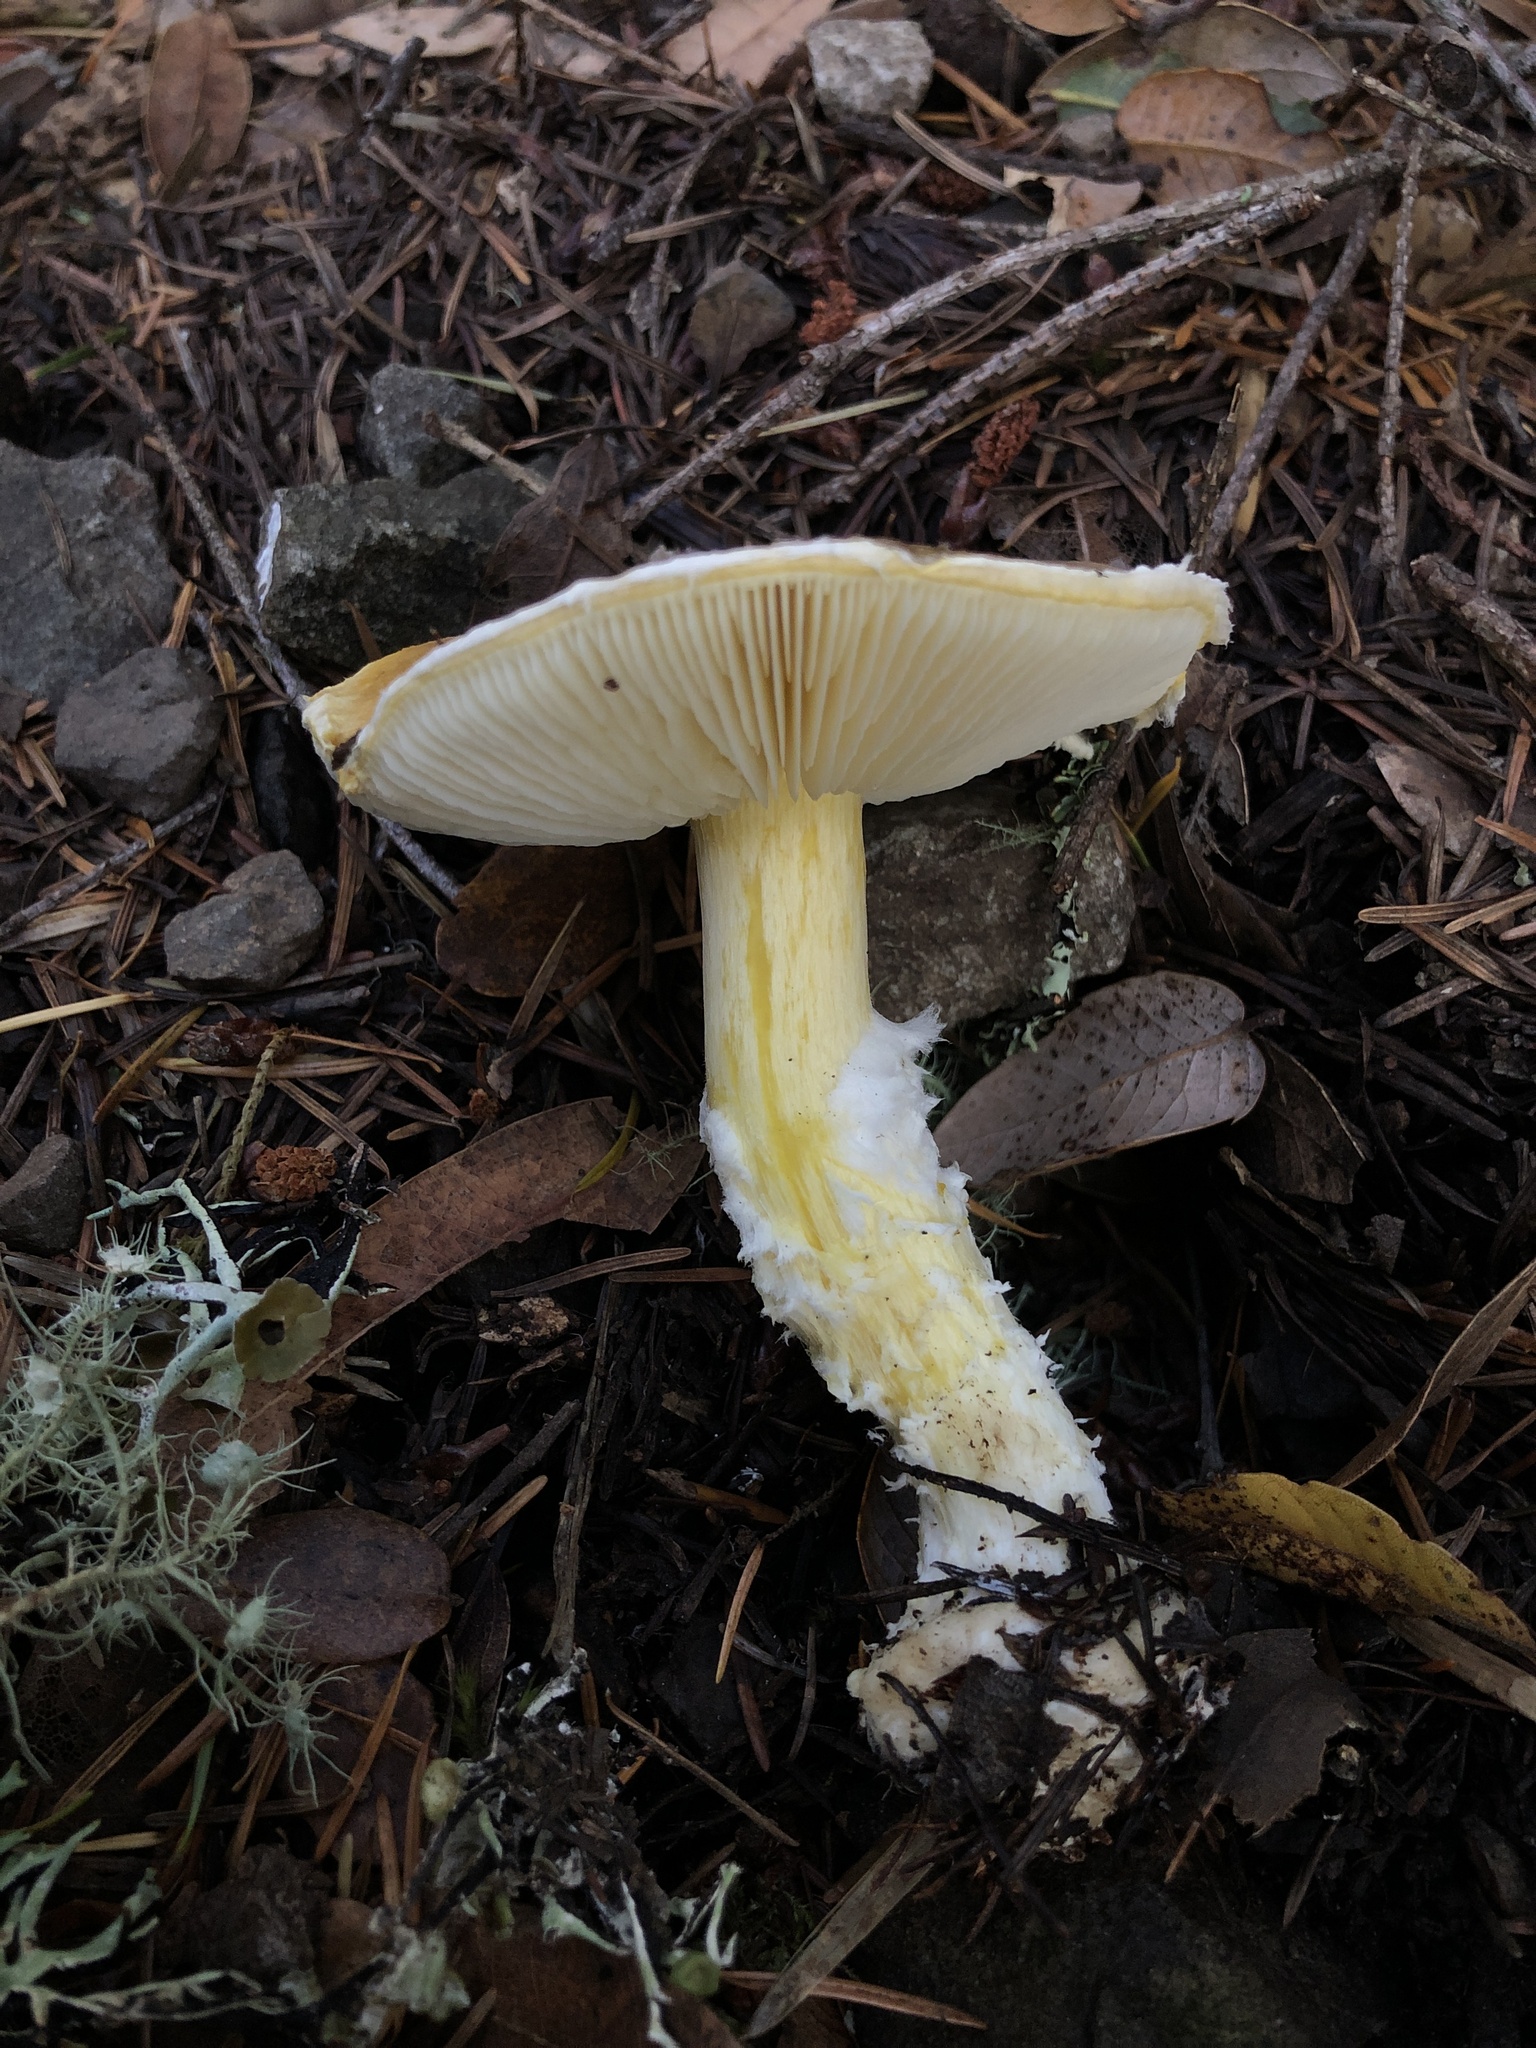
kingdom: Fungi
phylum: Basidiomycota
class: Agaricomycetes
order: Agaricales
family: Agaricaceae
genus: Floccularia
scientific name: Floccularia albolanaripes
